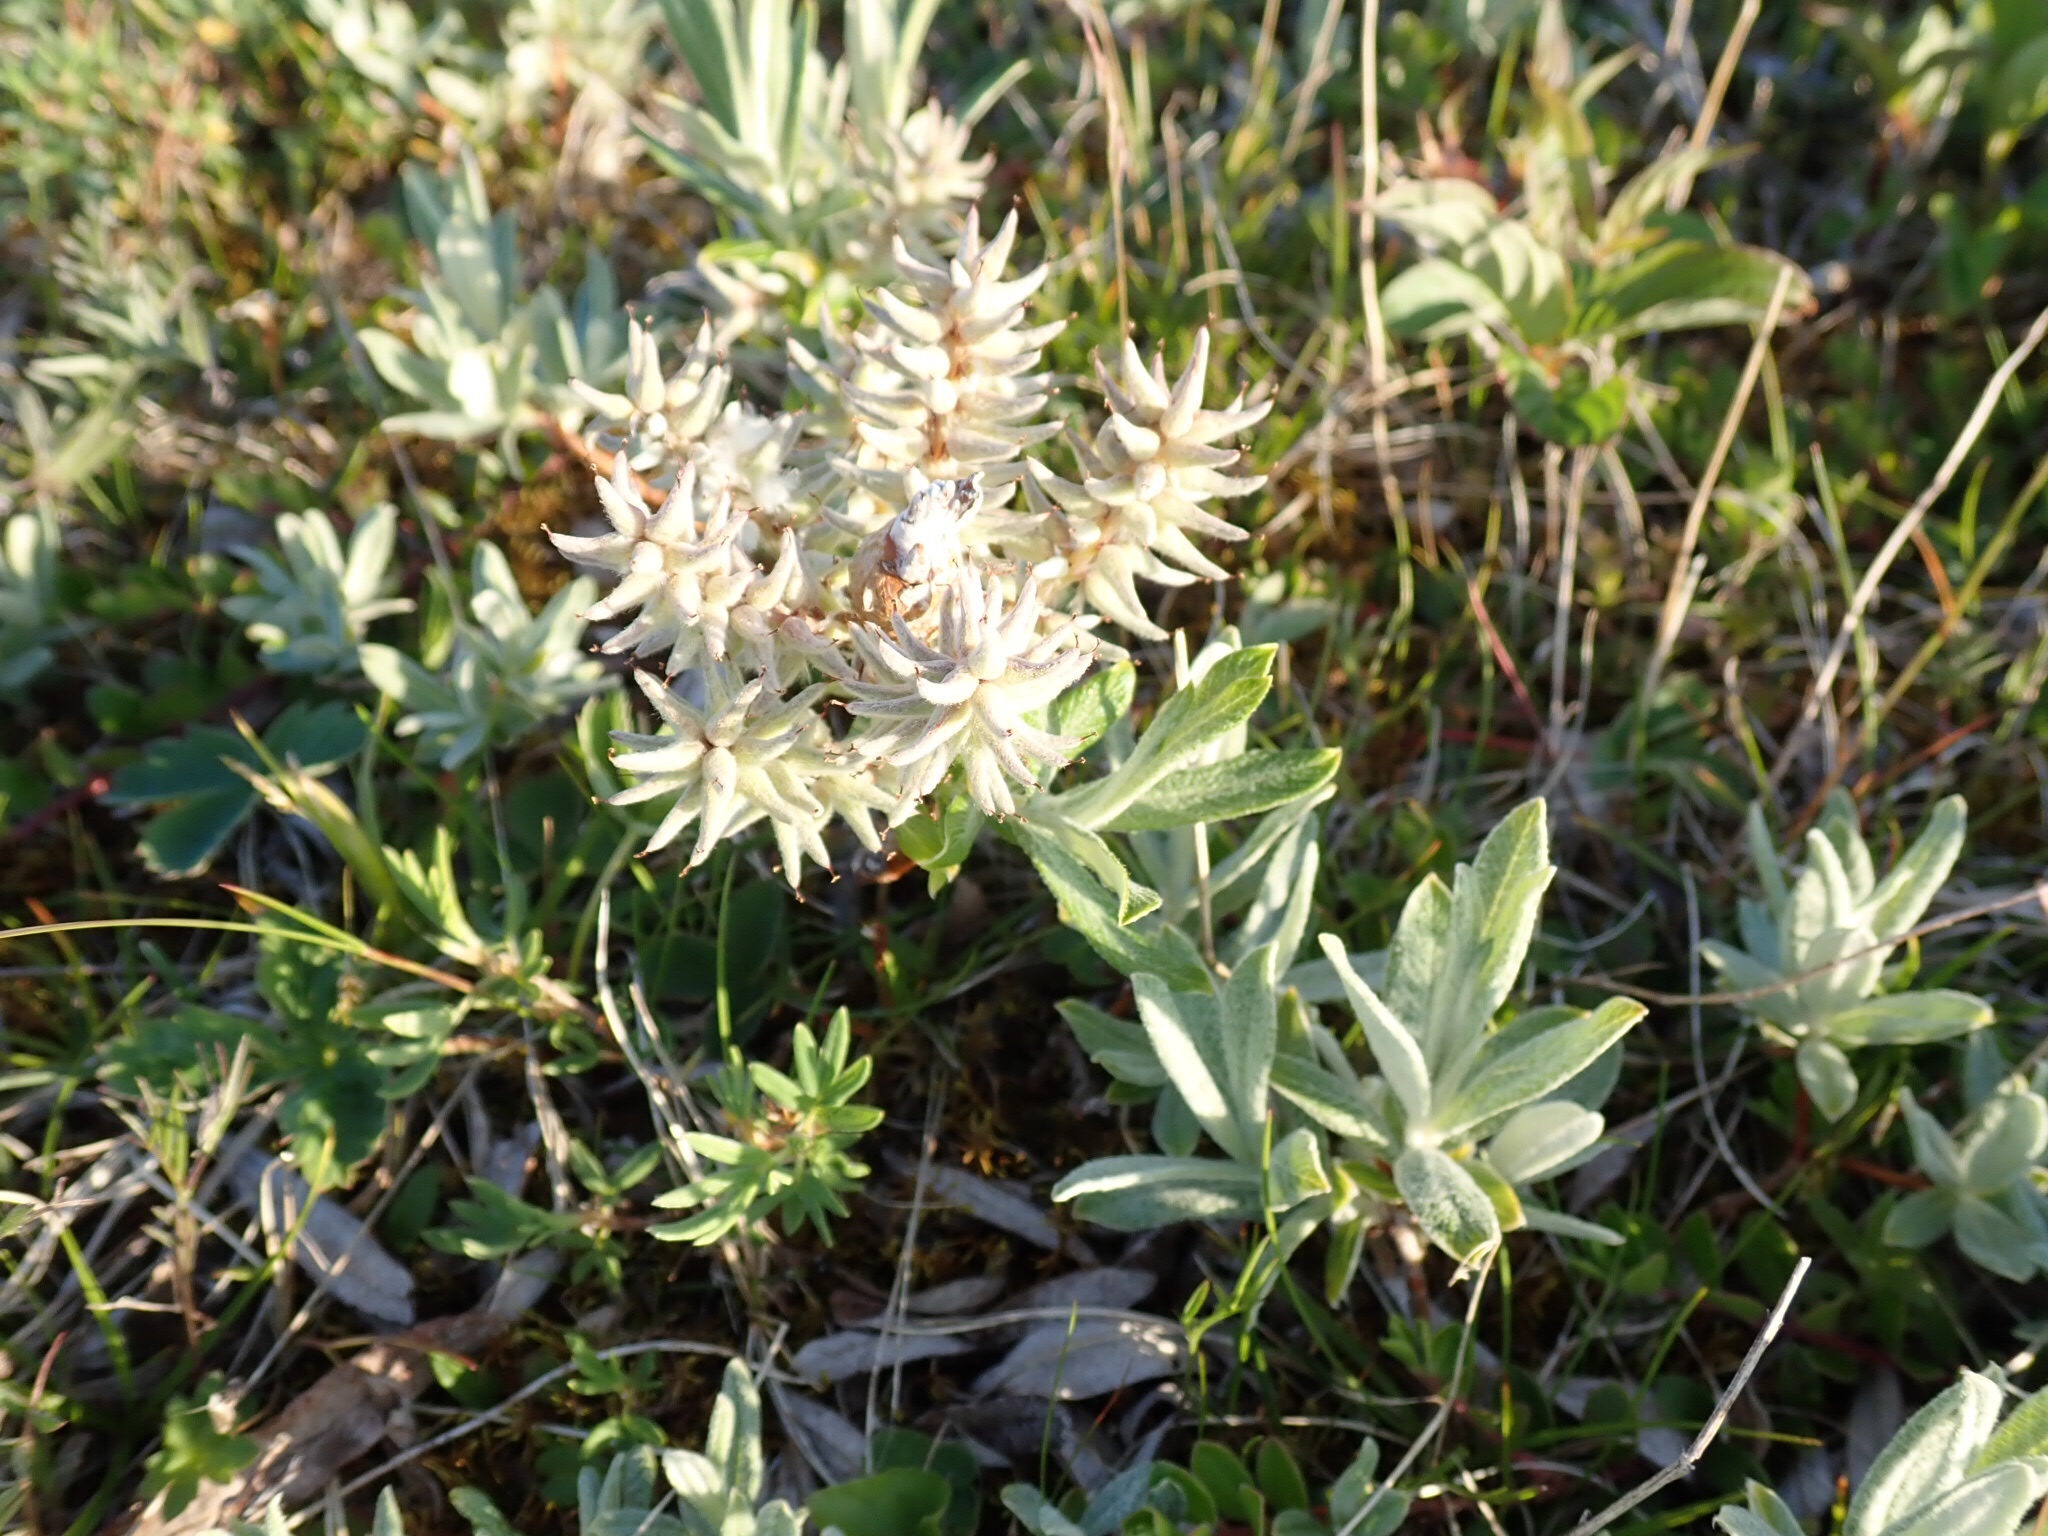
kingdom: Plantae
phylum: Tracheophyta
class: Magnoliopsida
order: Malpighiales
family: Salicaceae
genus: Salix
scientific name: Salix candida
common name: Hoary willow
